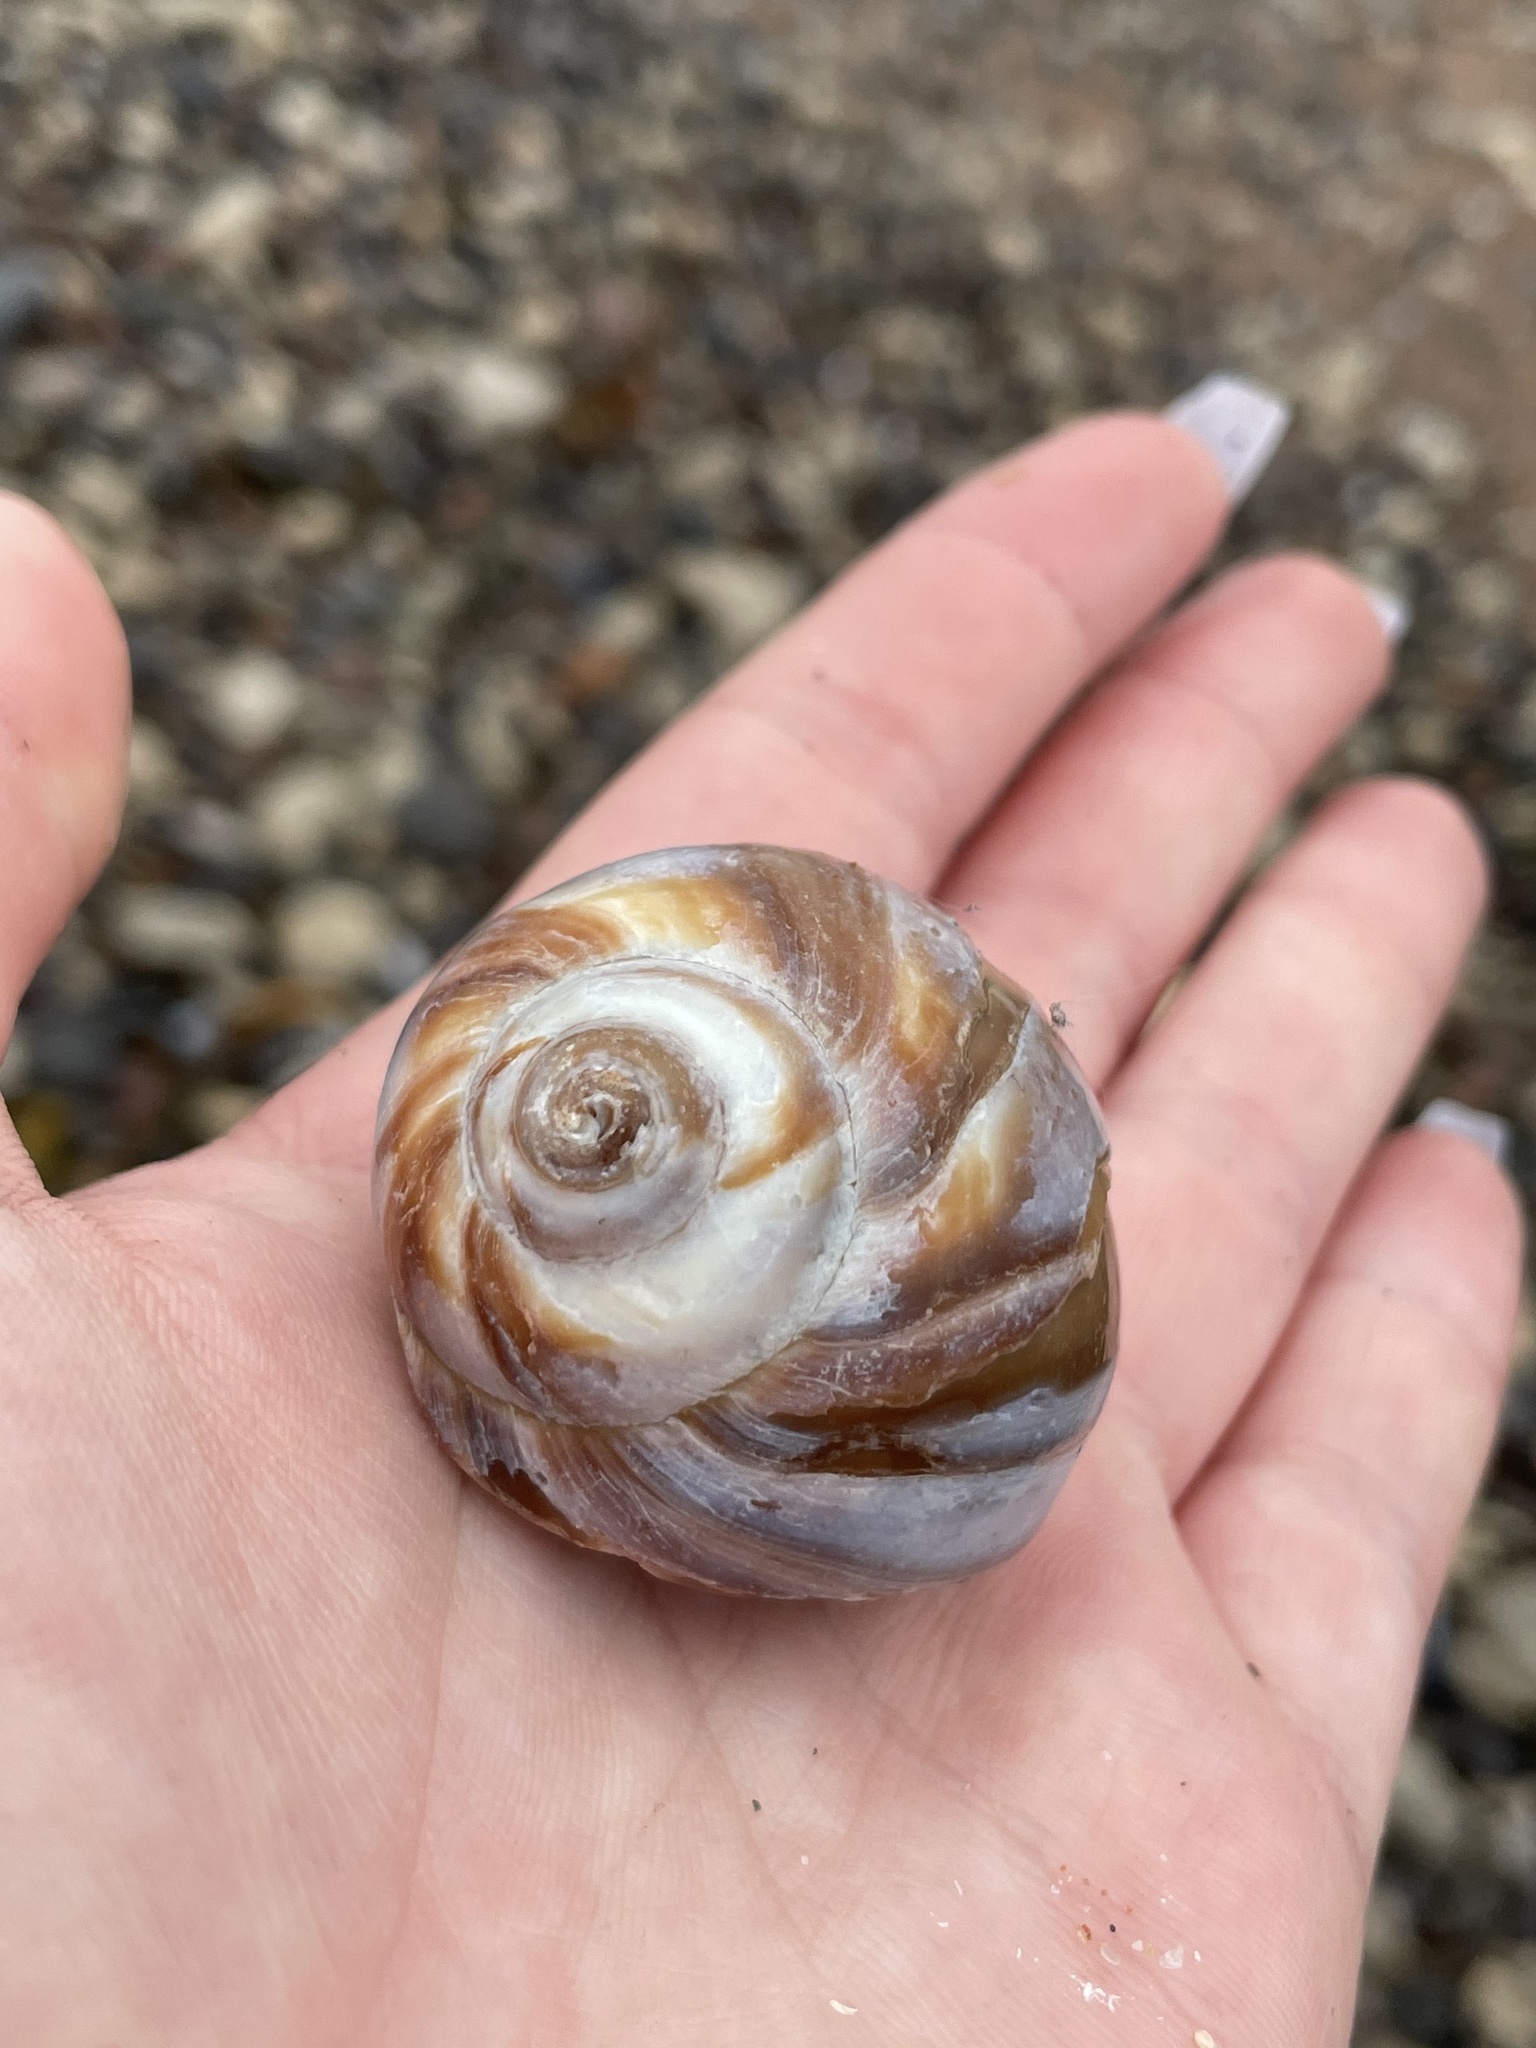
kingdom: Animalia
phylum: Mollusca
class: Gastropoda
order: Littorinimorpha
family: Naticidae
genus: Euspira
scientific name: Euspira heros
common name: Common northern moonsnail
